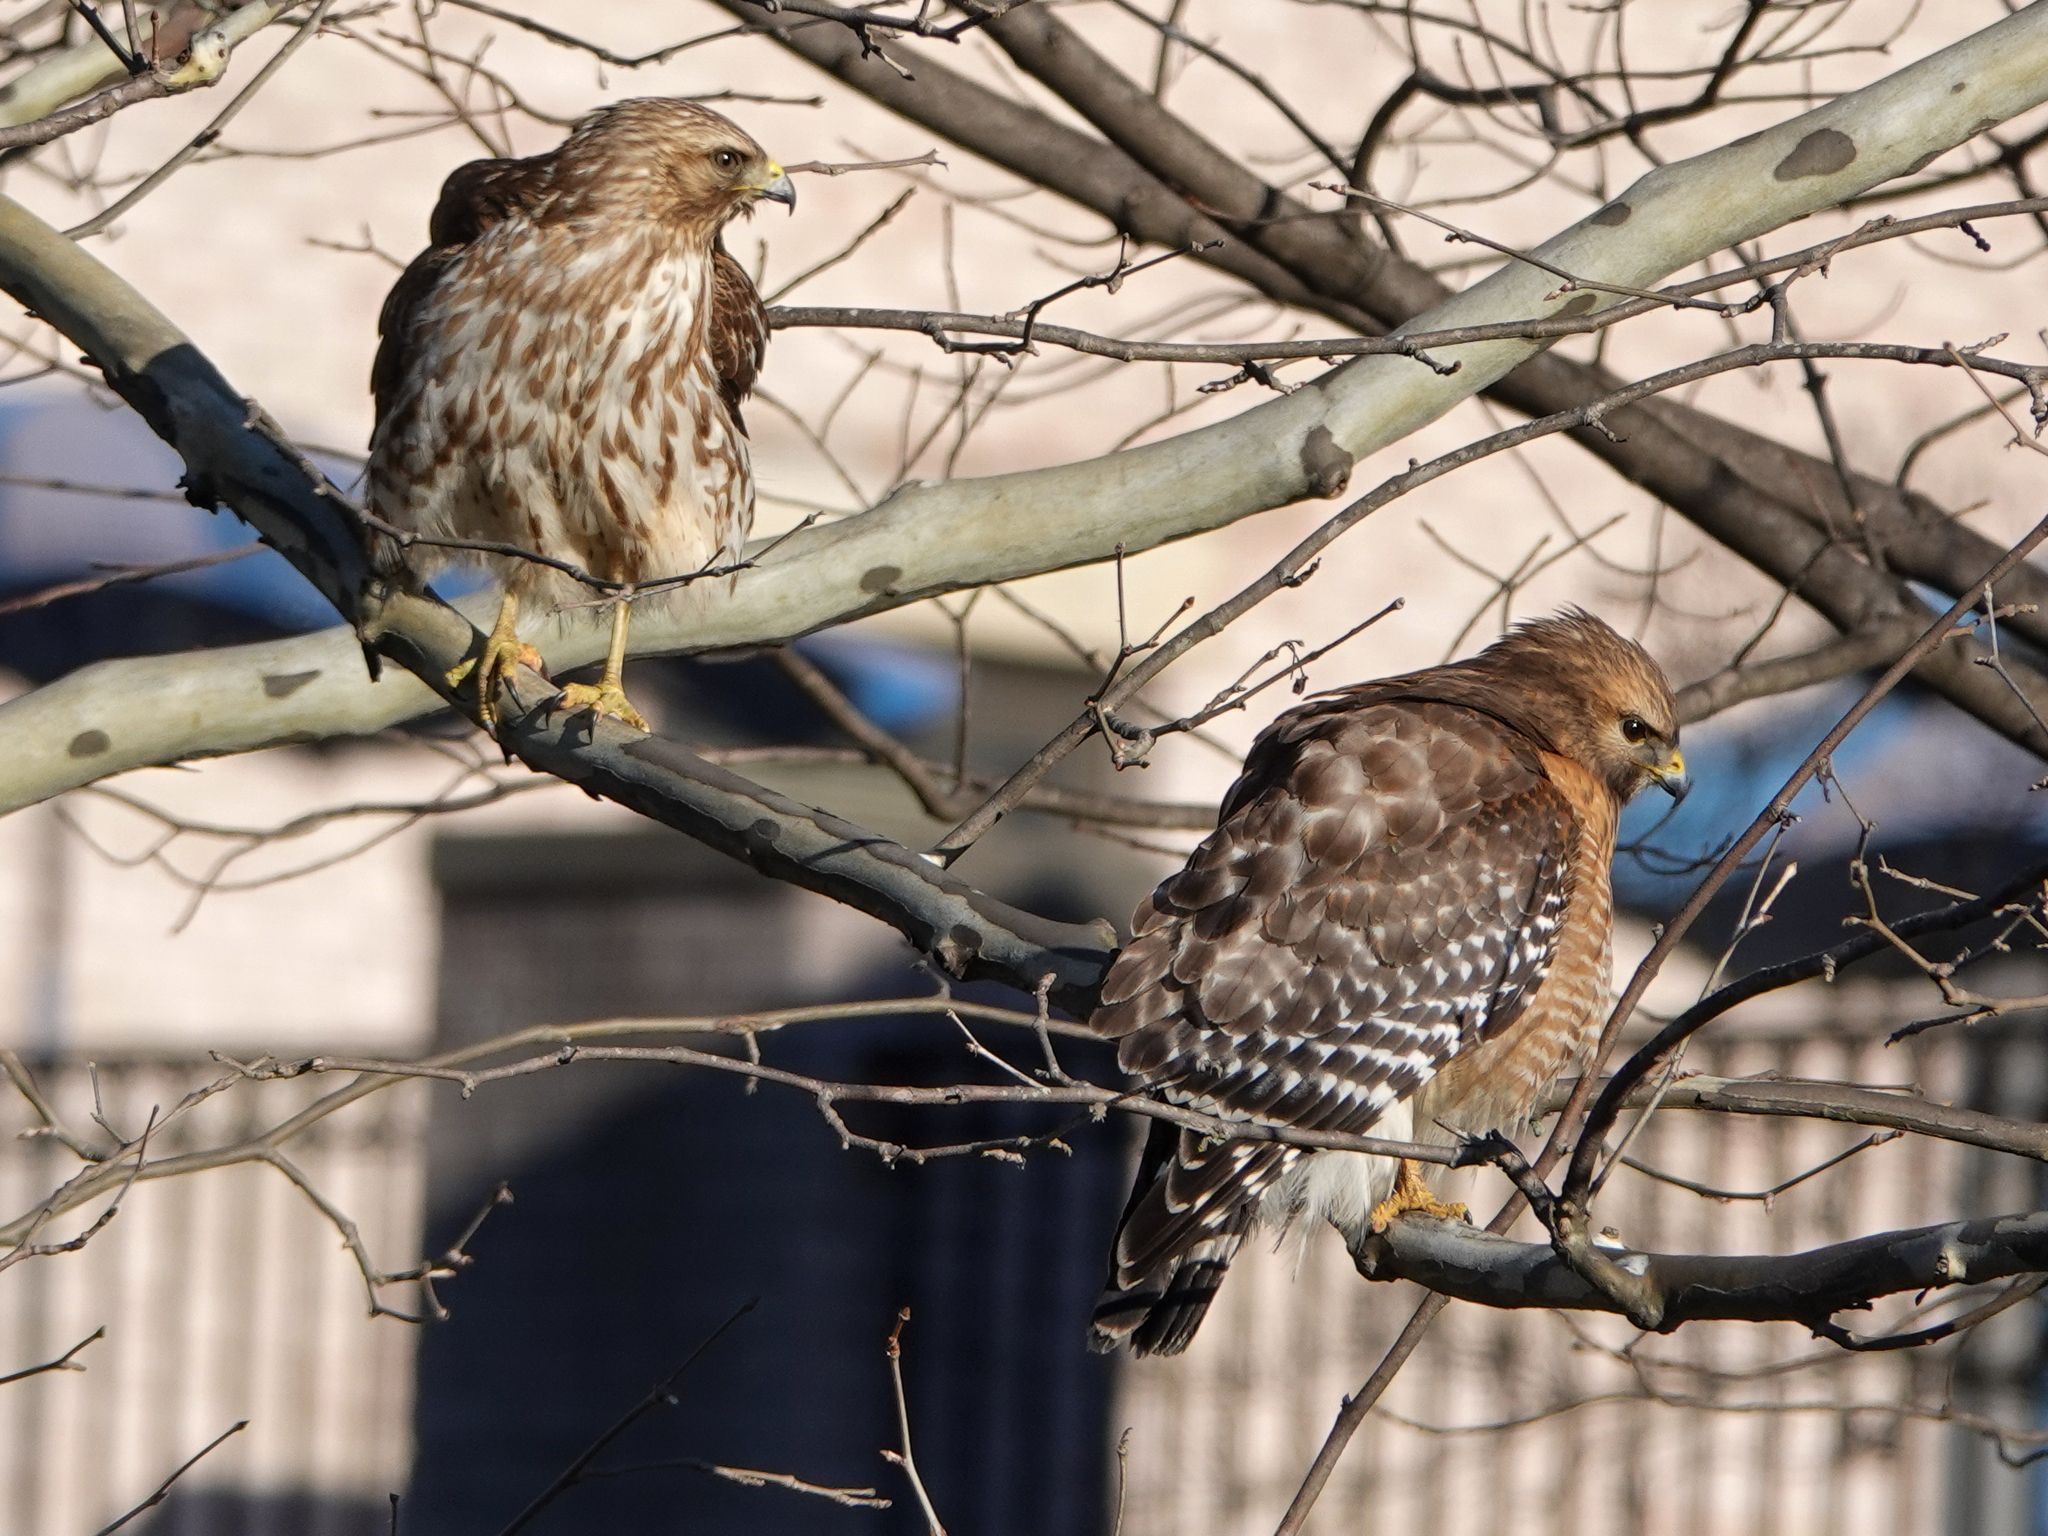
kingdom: Animalia
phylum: Chordata
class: Aves
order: Accipitriformes
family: Accipitridae
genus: Buteo
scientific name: Buteo lineatus
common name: Red-shouldered hawk
